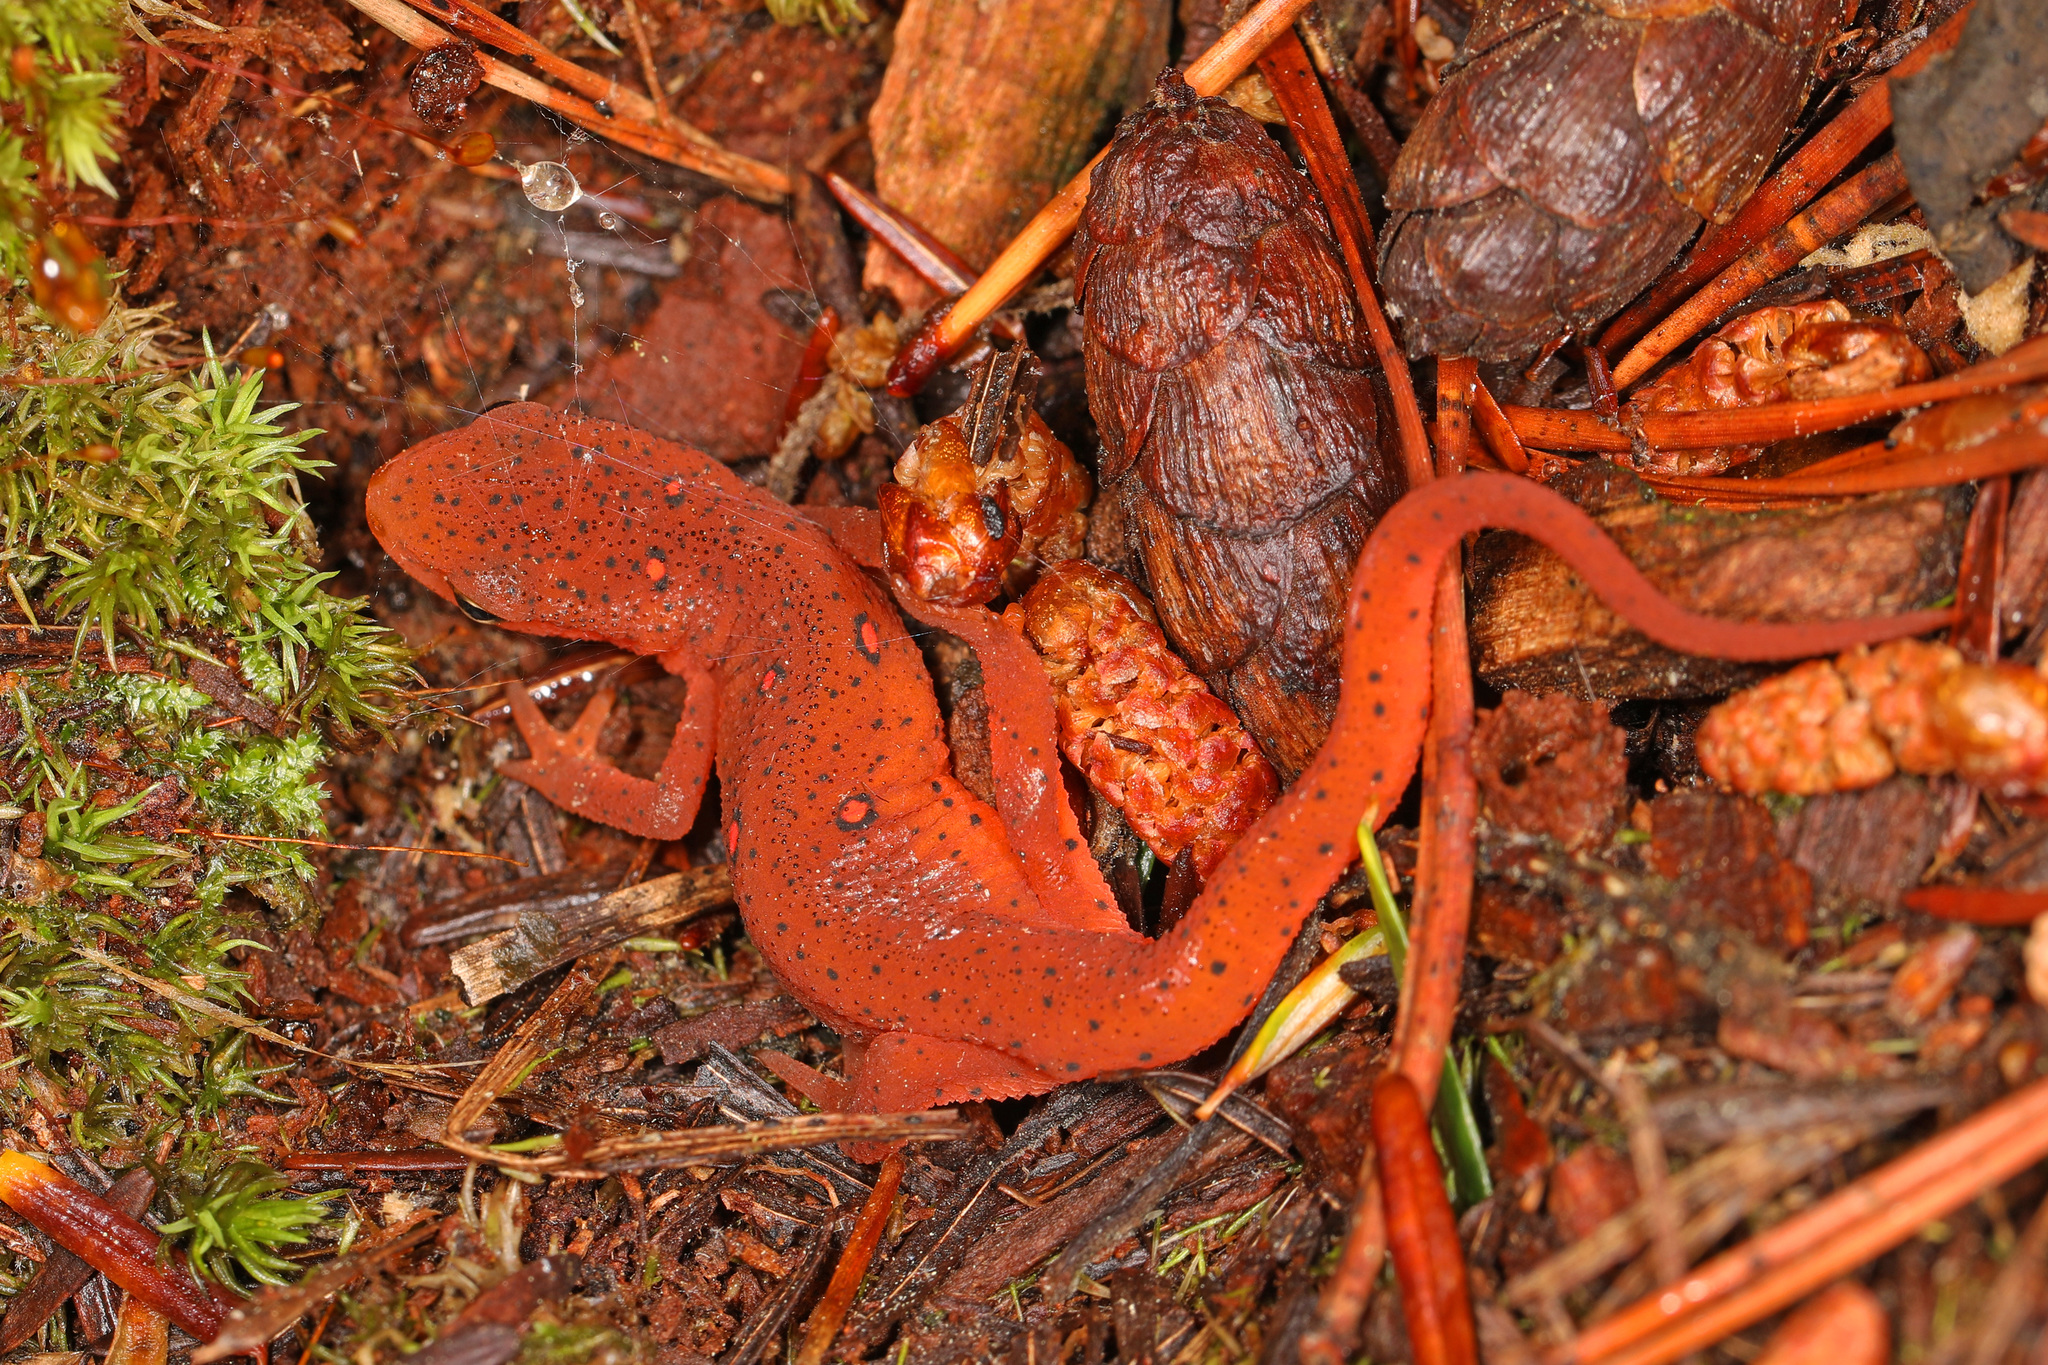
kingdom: Animalia
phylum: Chordata
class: Amphibia
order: Caudata
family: Salamandridae
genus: Notophthalmus
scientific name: Notophthalmus viridescens
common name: Eastern newt
